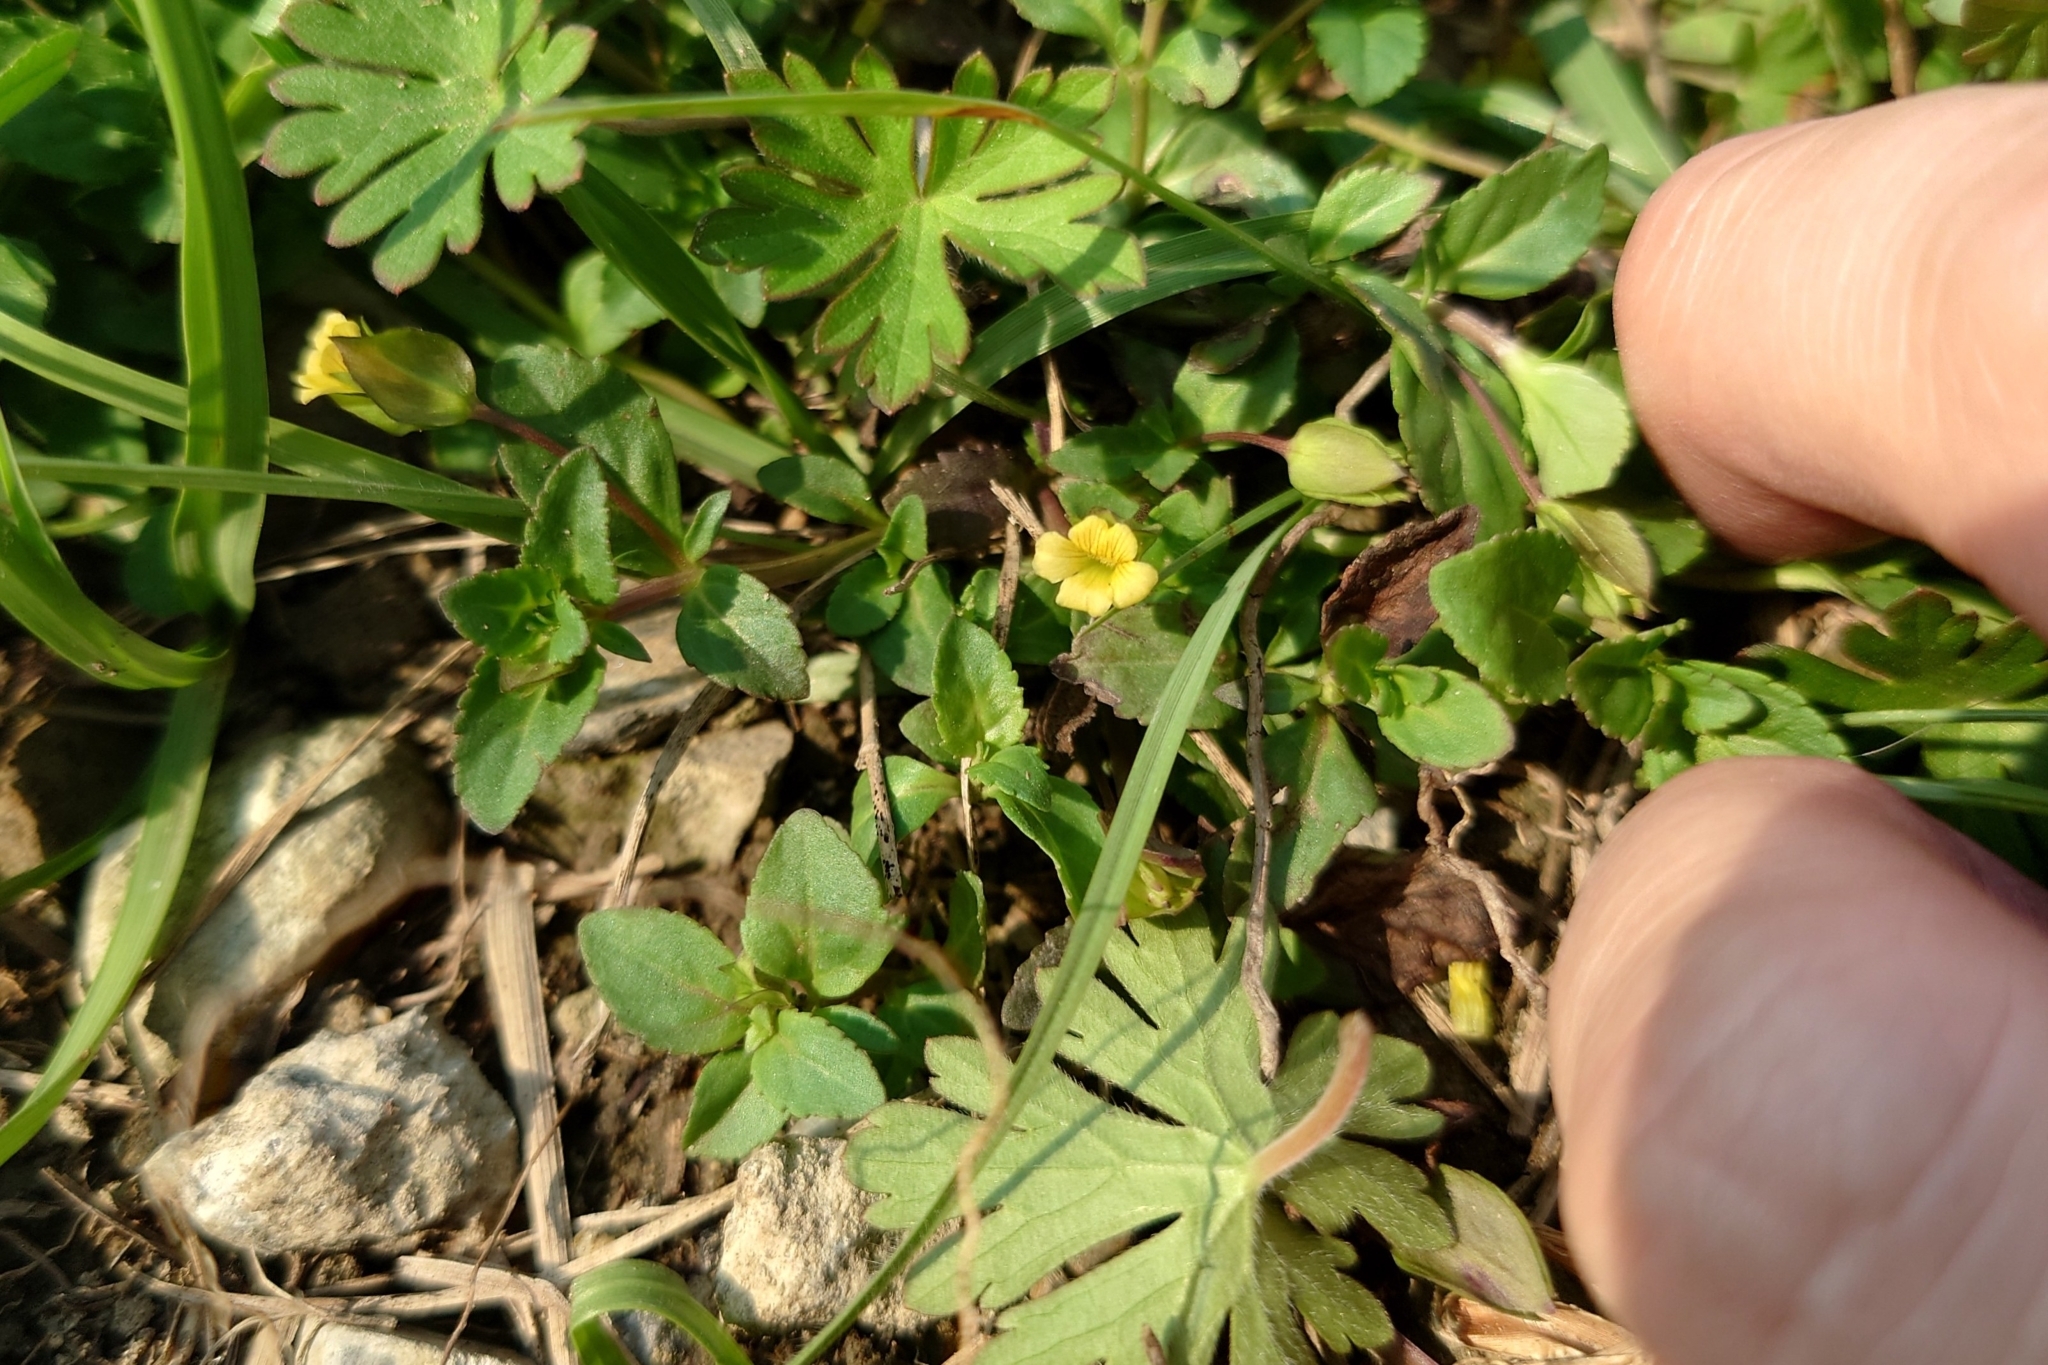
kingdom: Plantae
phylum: Tracheophyta
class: Magnoliopsida
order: Lamiales
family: Plantaginaceae
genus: Mecardonia
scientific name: Mecardonia procumbens
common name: Baby jump-up
